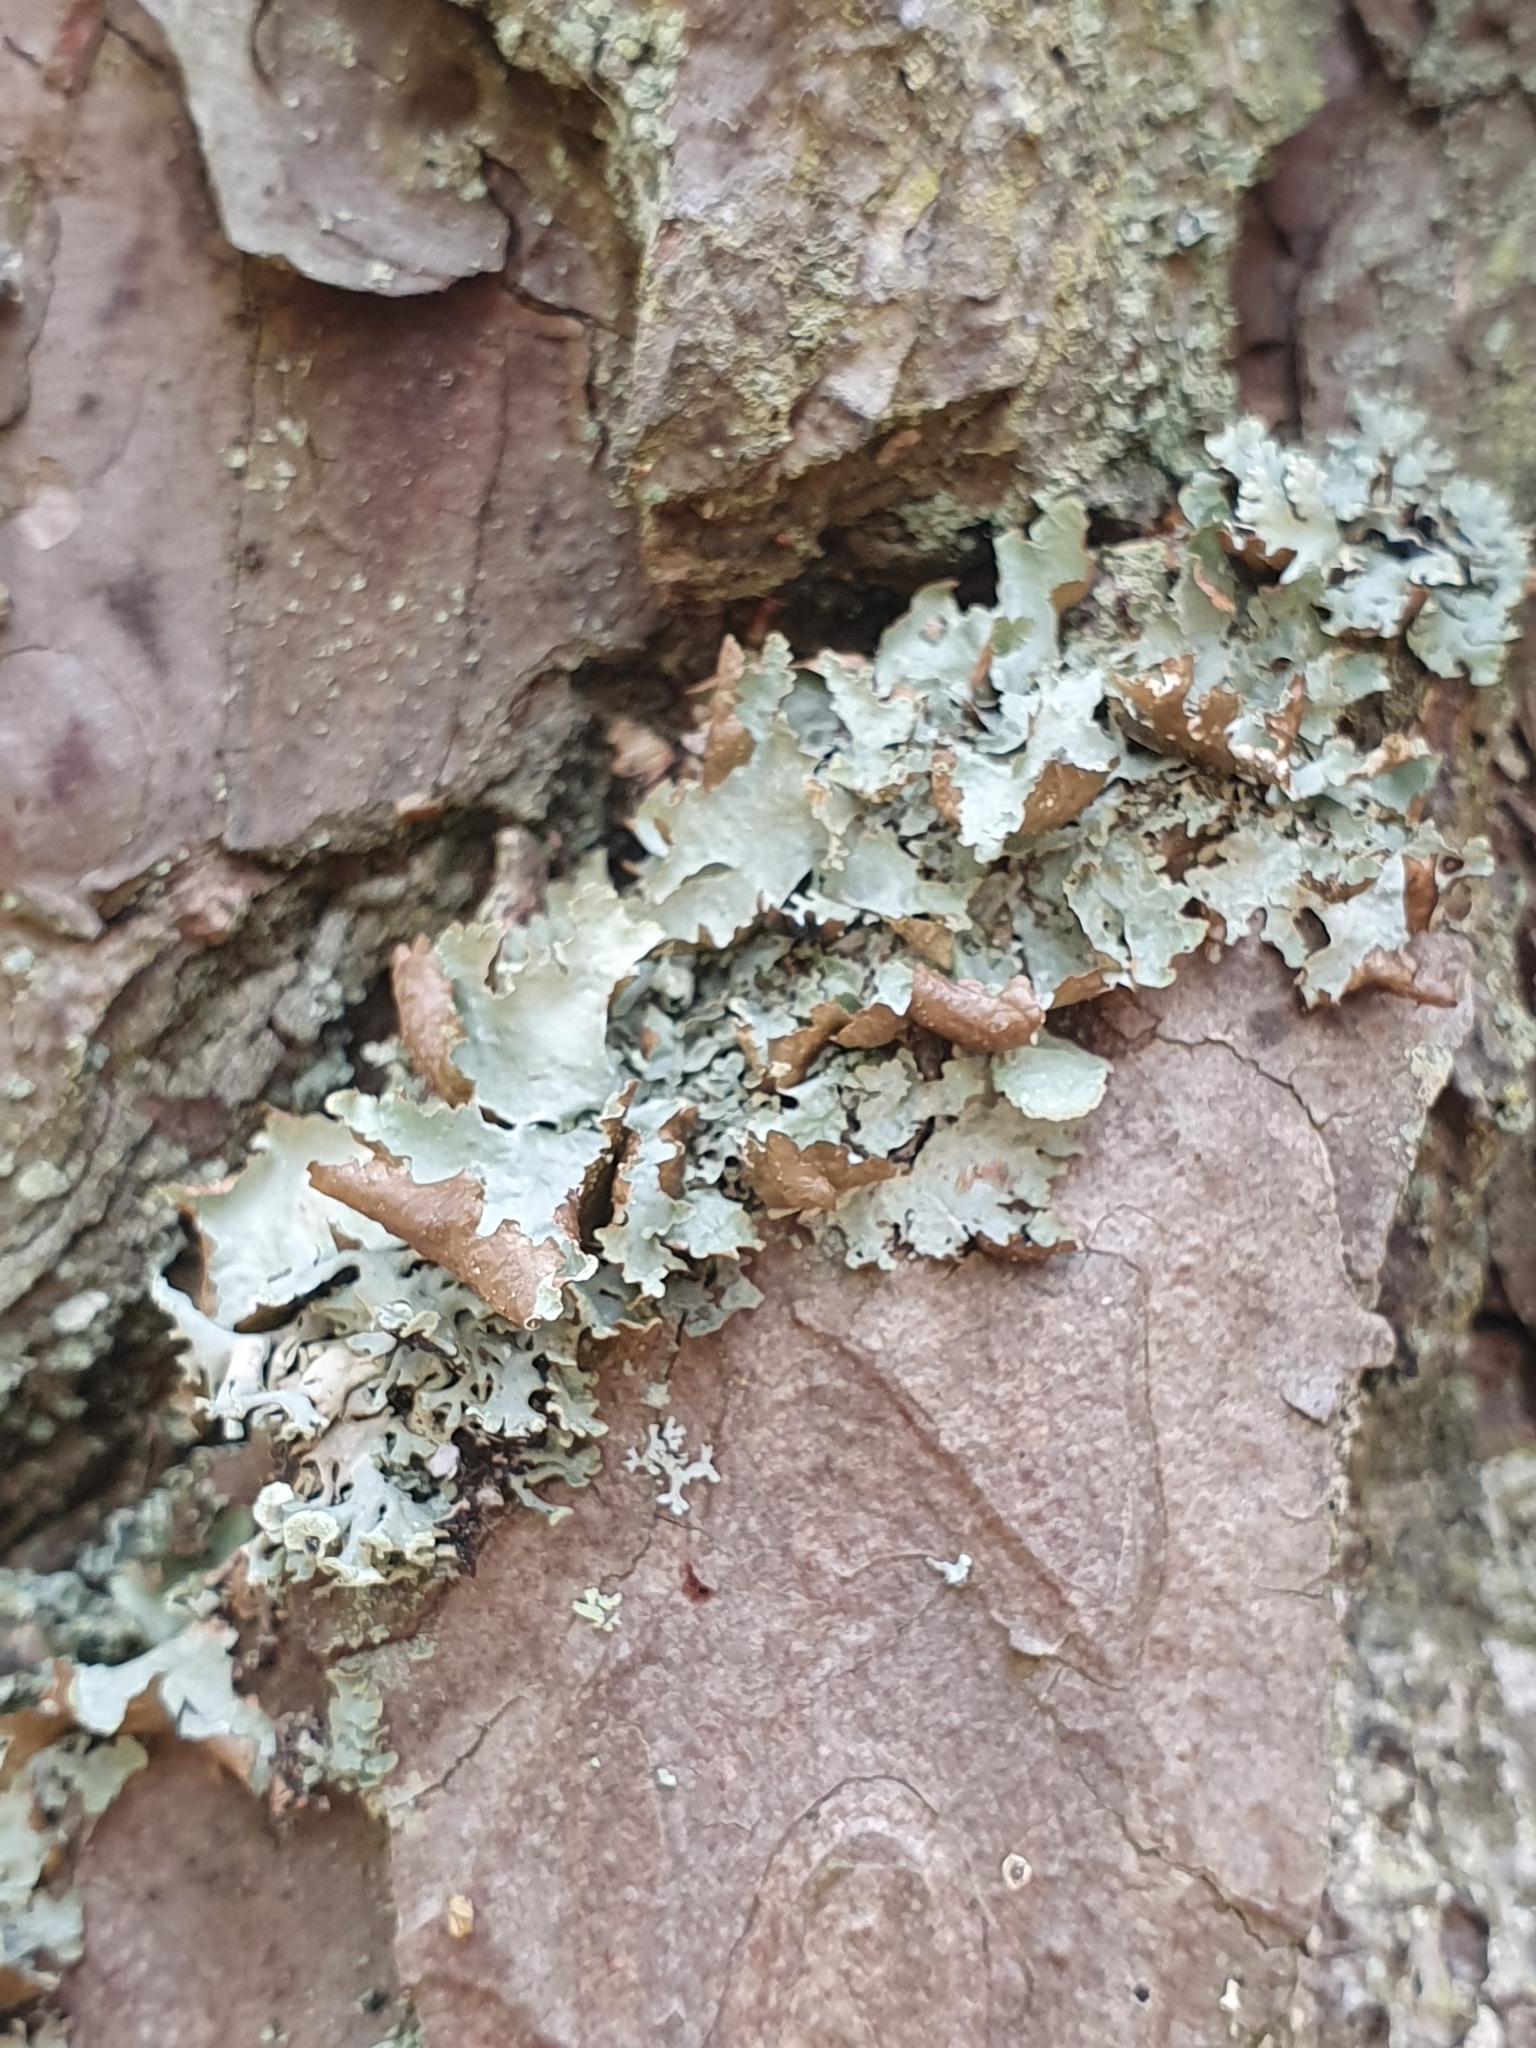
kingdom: Fungi
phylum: Ascomycota
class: Lecanoromycetes
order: Lecanorales
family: Parmeliaceae
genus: Platismatia
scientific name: Platismatia glauca
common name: Varied rag lichen
